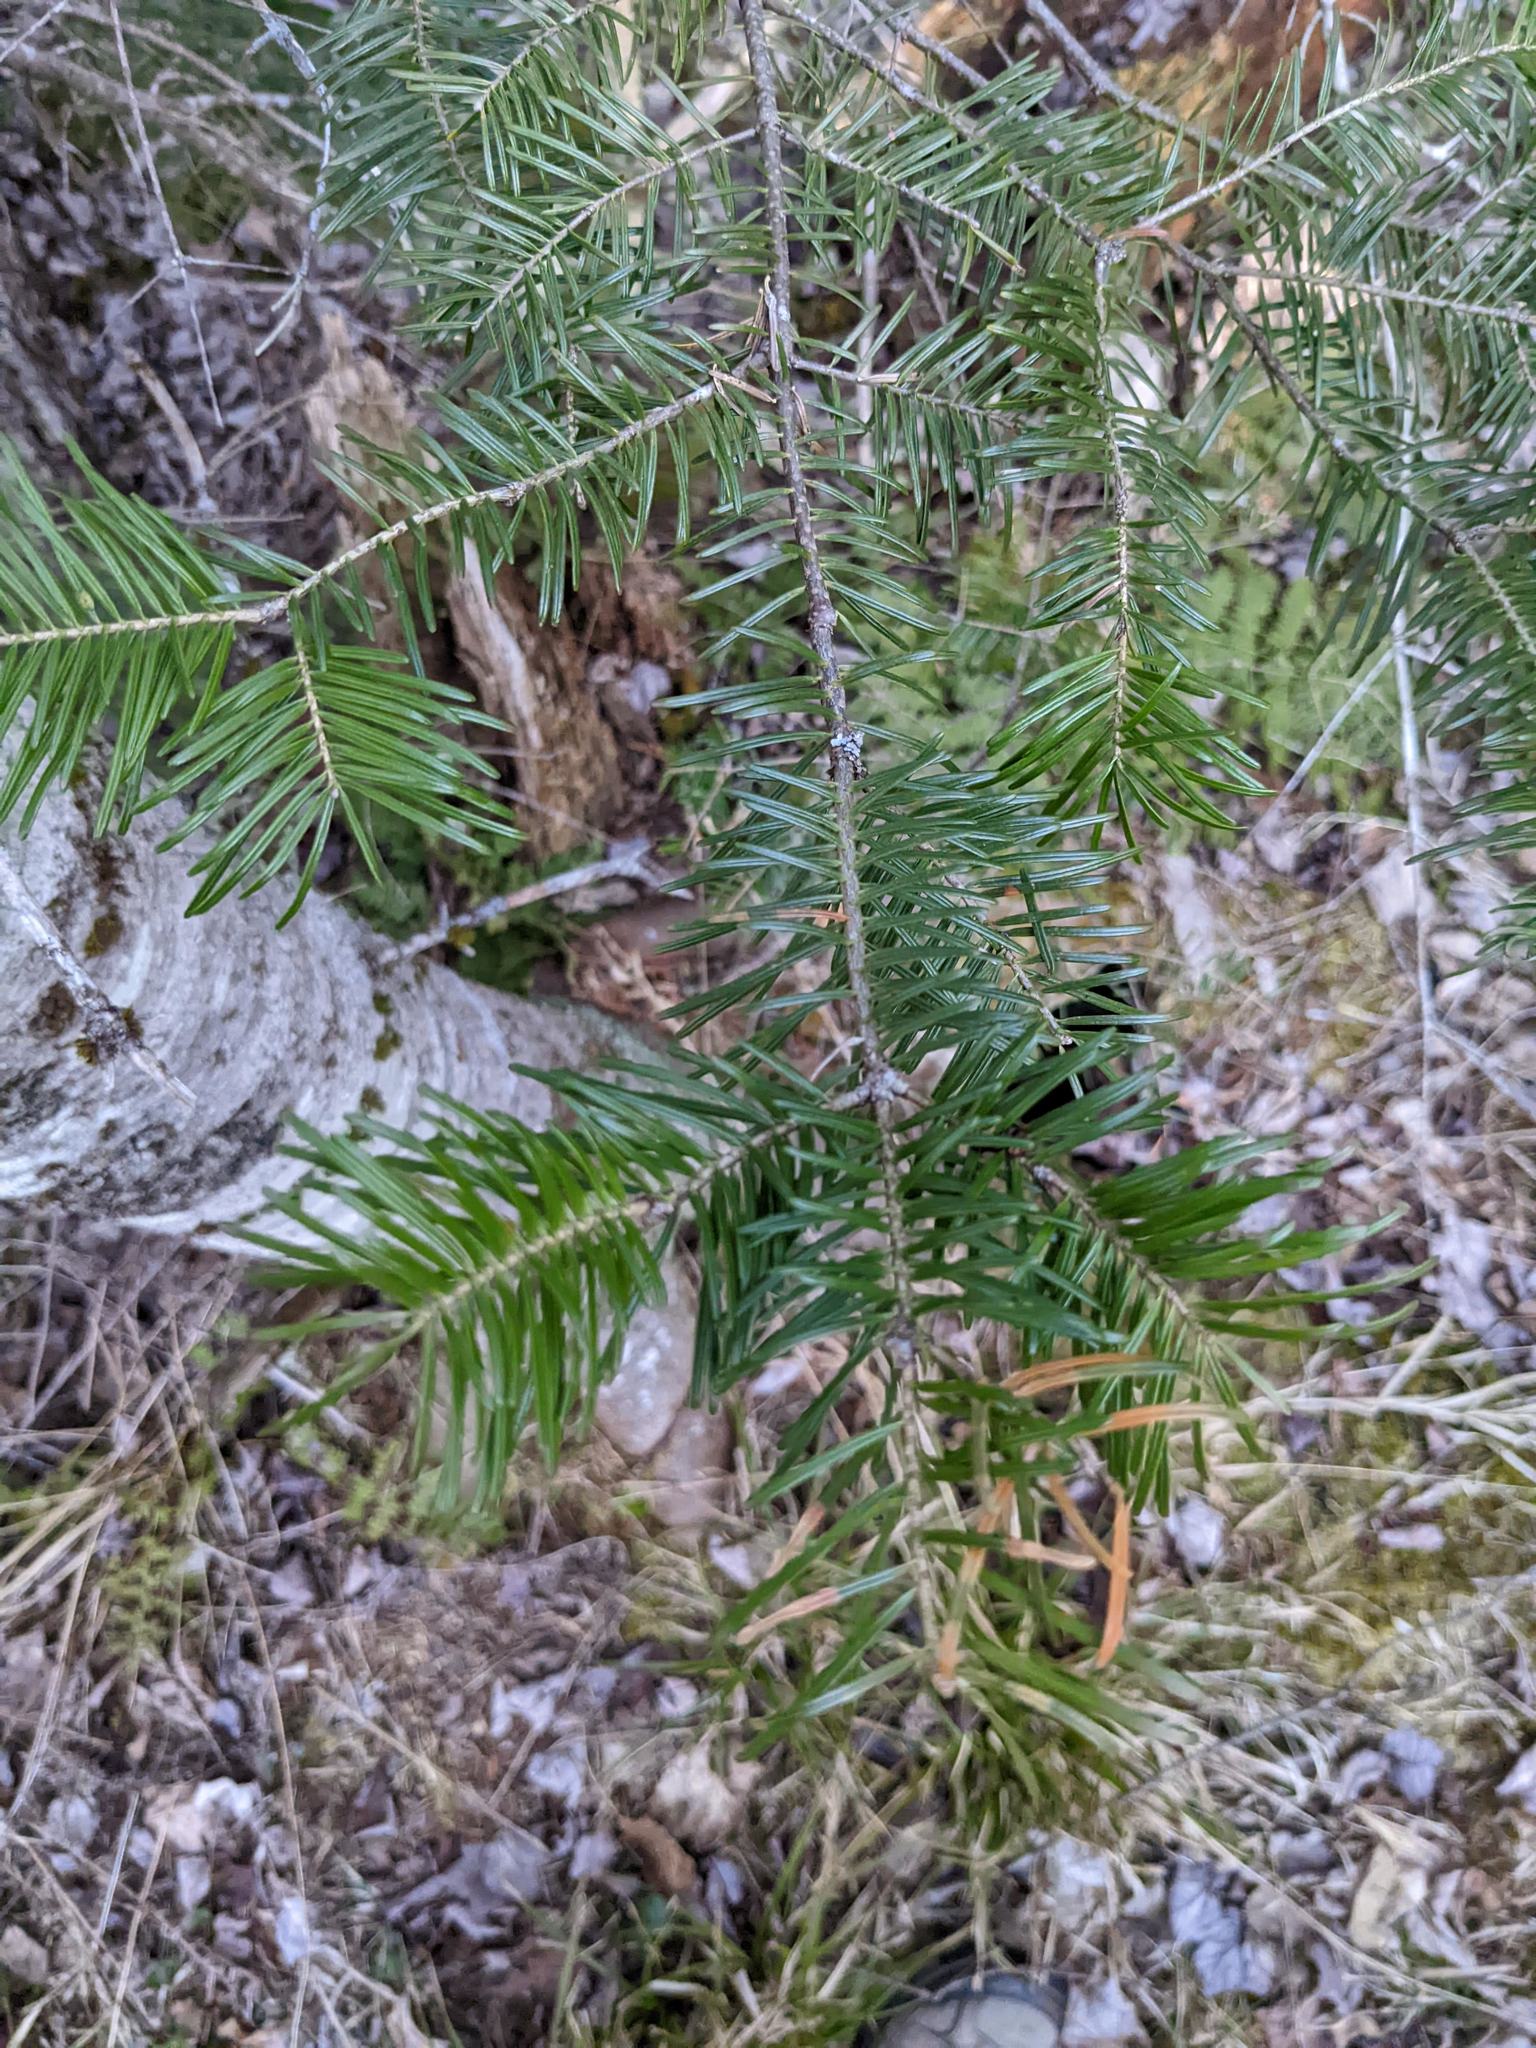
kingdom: Plantae
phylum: Tracheophyta
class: Pinopsida
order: Pinales
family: Pinaceae
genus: Abies
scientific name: Abies balsamea
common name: Balsam fir
